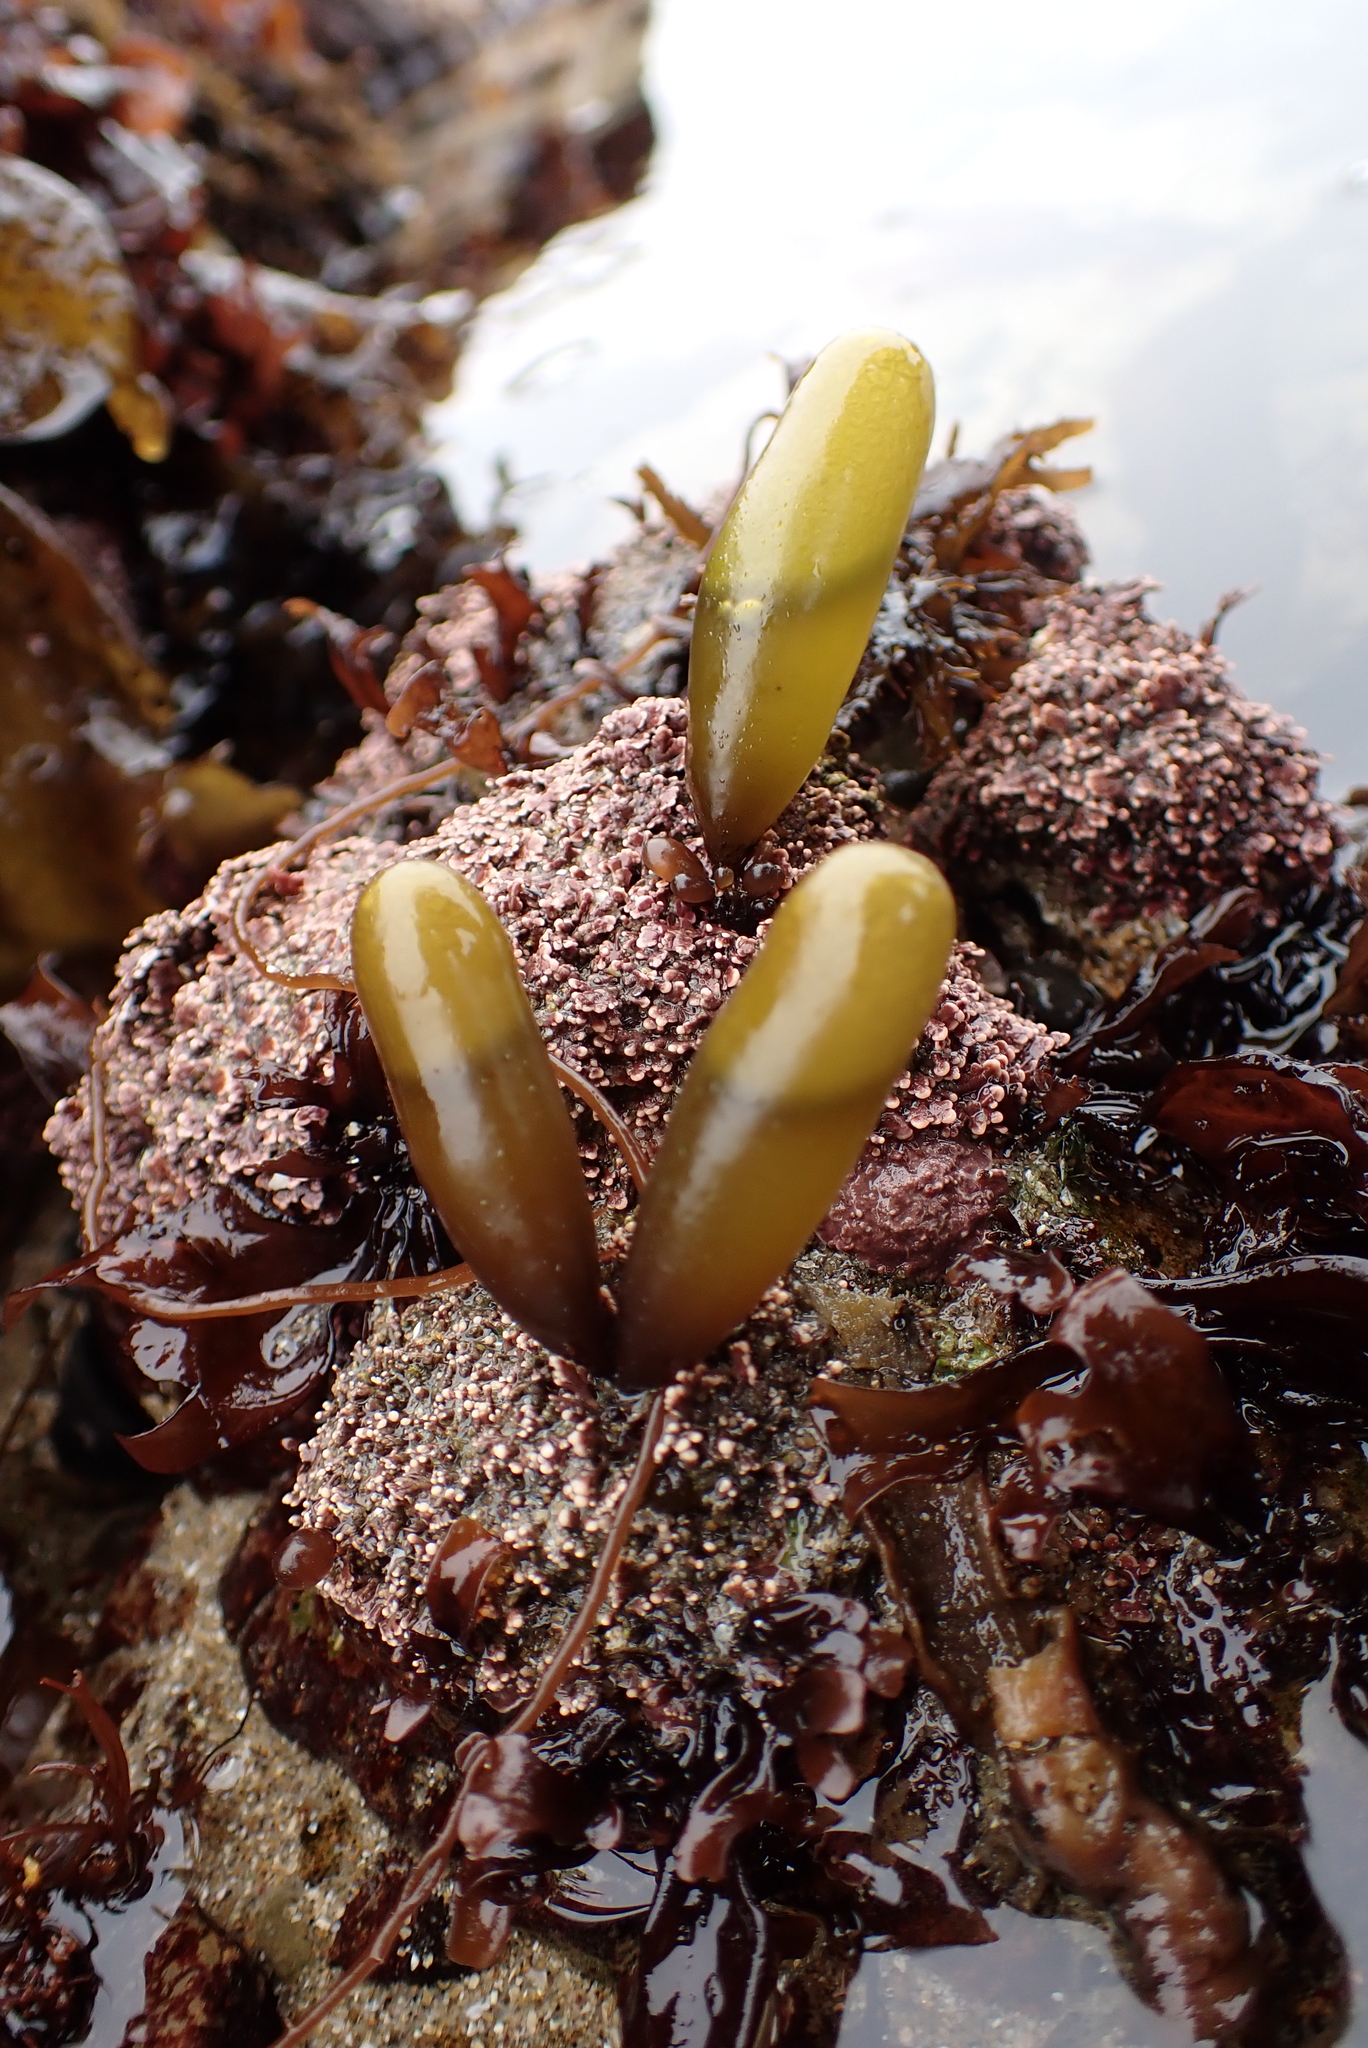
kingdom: Plantae
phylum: Rhodophyta
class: Florideophyceae
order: Palmariales
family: Palmariaceae
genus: Halosaccion
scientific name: Halosaccion glandiforme
